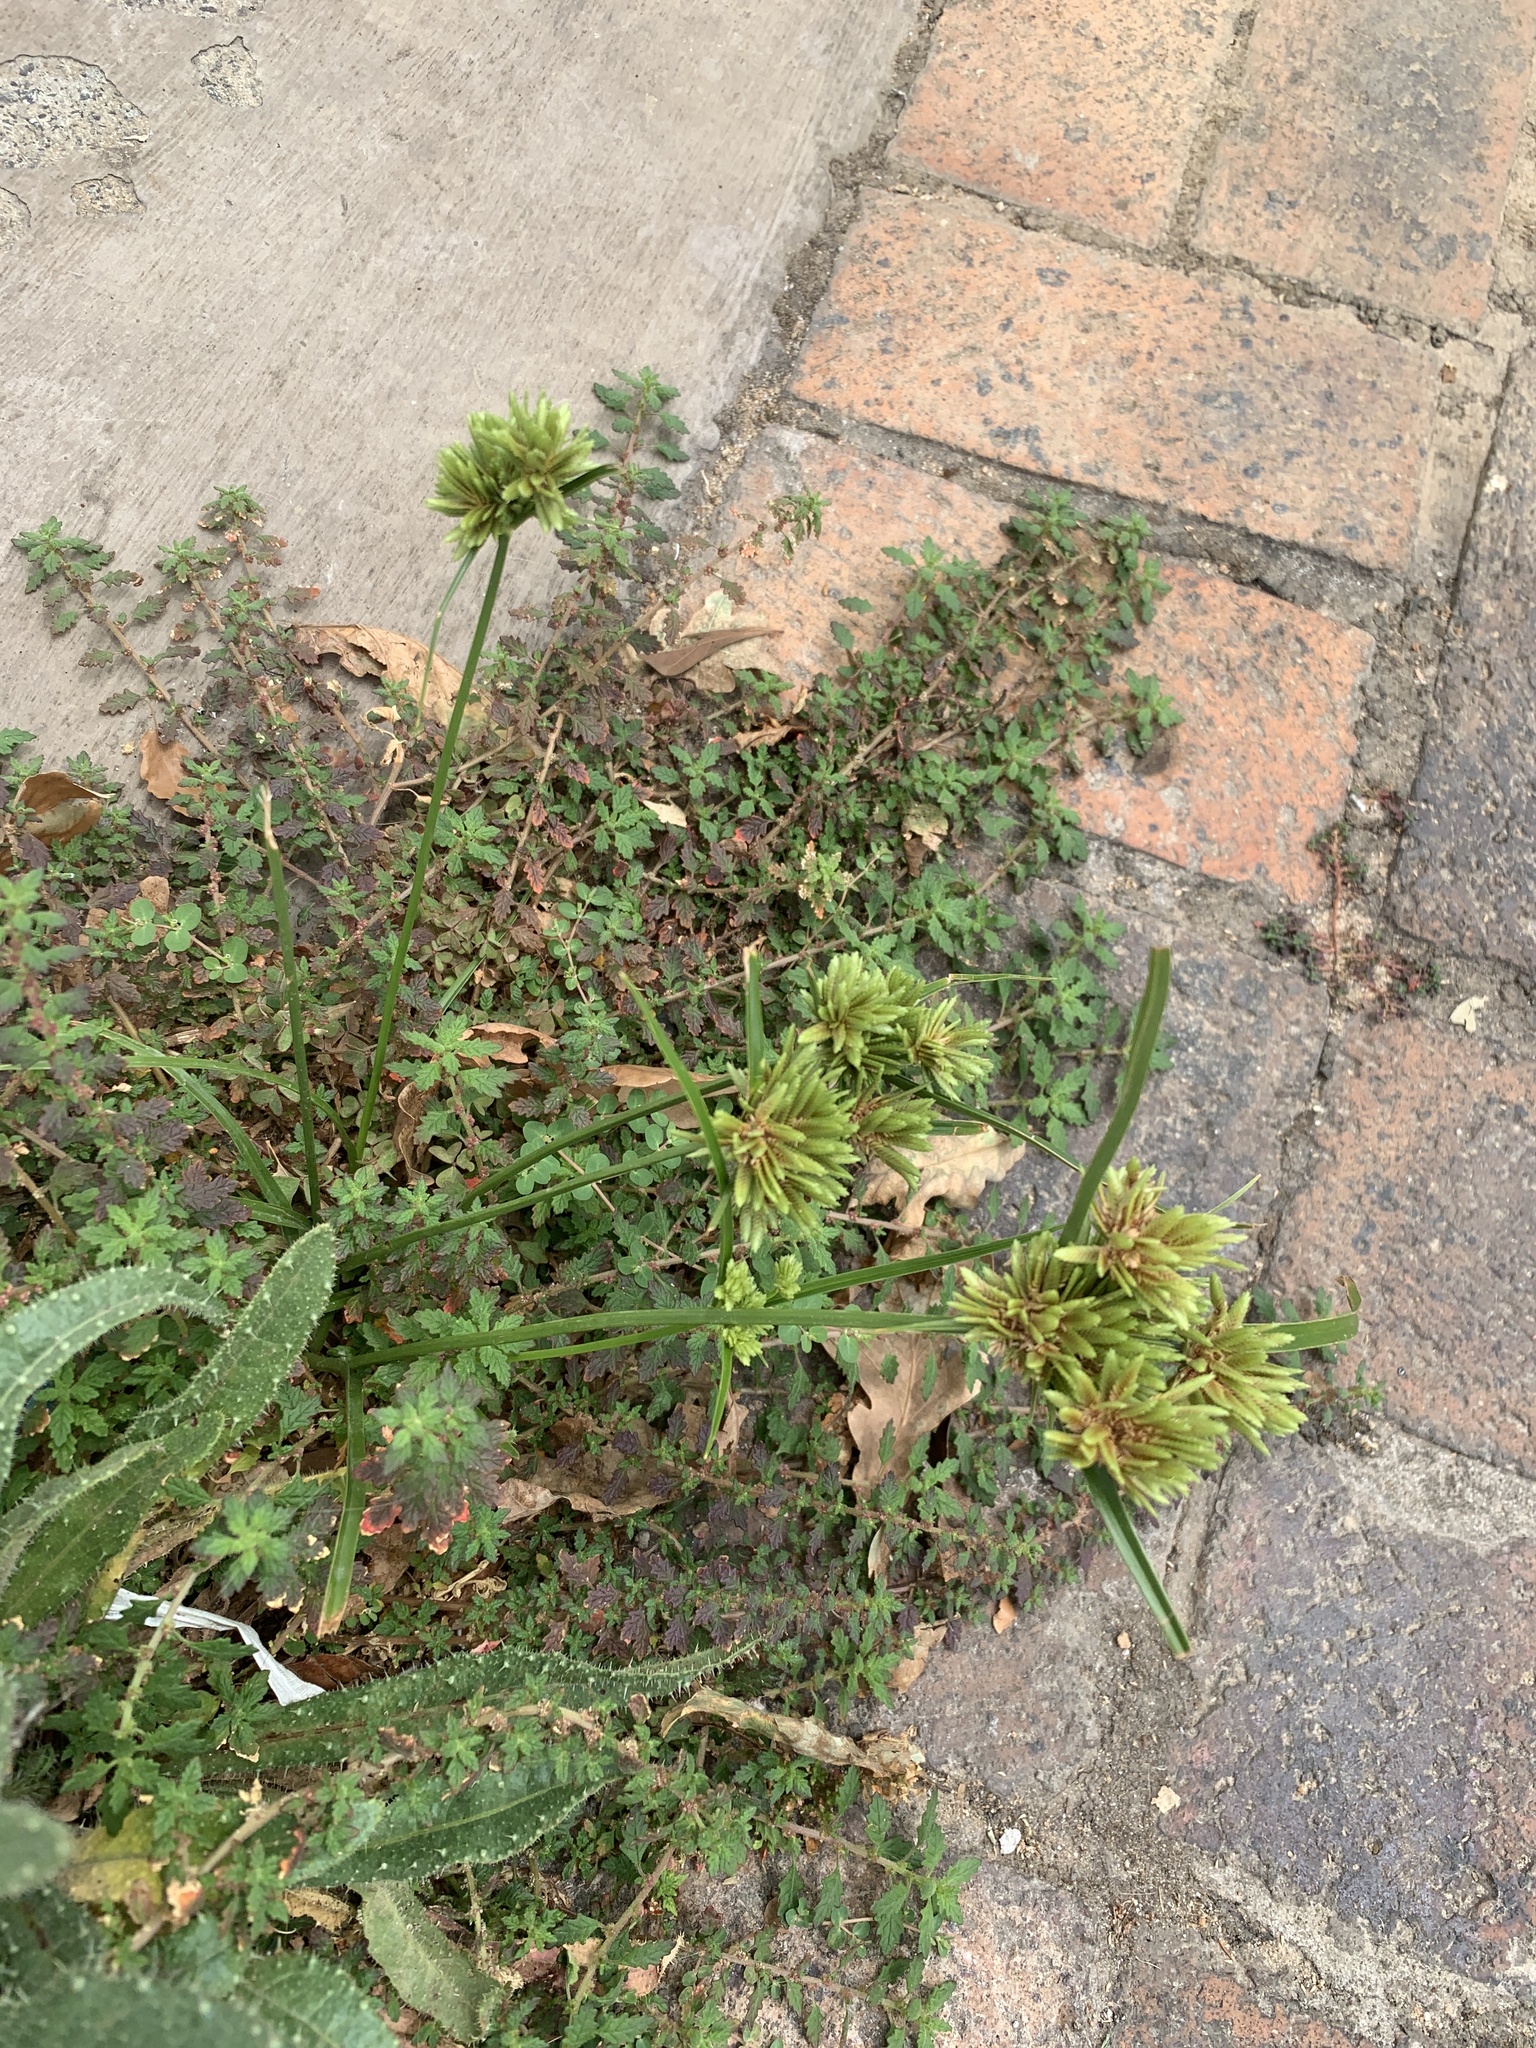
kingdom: Plantae
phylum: Tracheophyta
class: Liliopsida
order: Poales
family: Cyperaceae
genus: Cyperus
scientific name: Cyperus eragrostis
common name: Tall flatsedge
